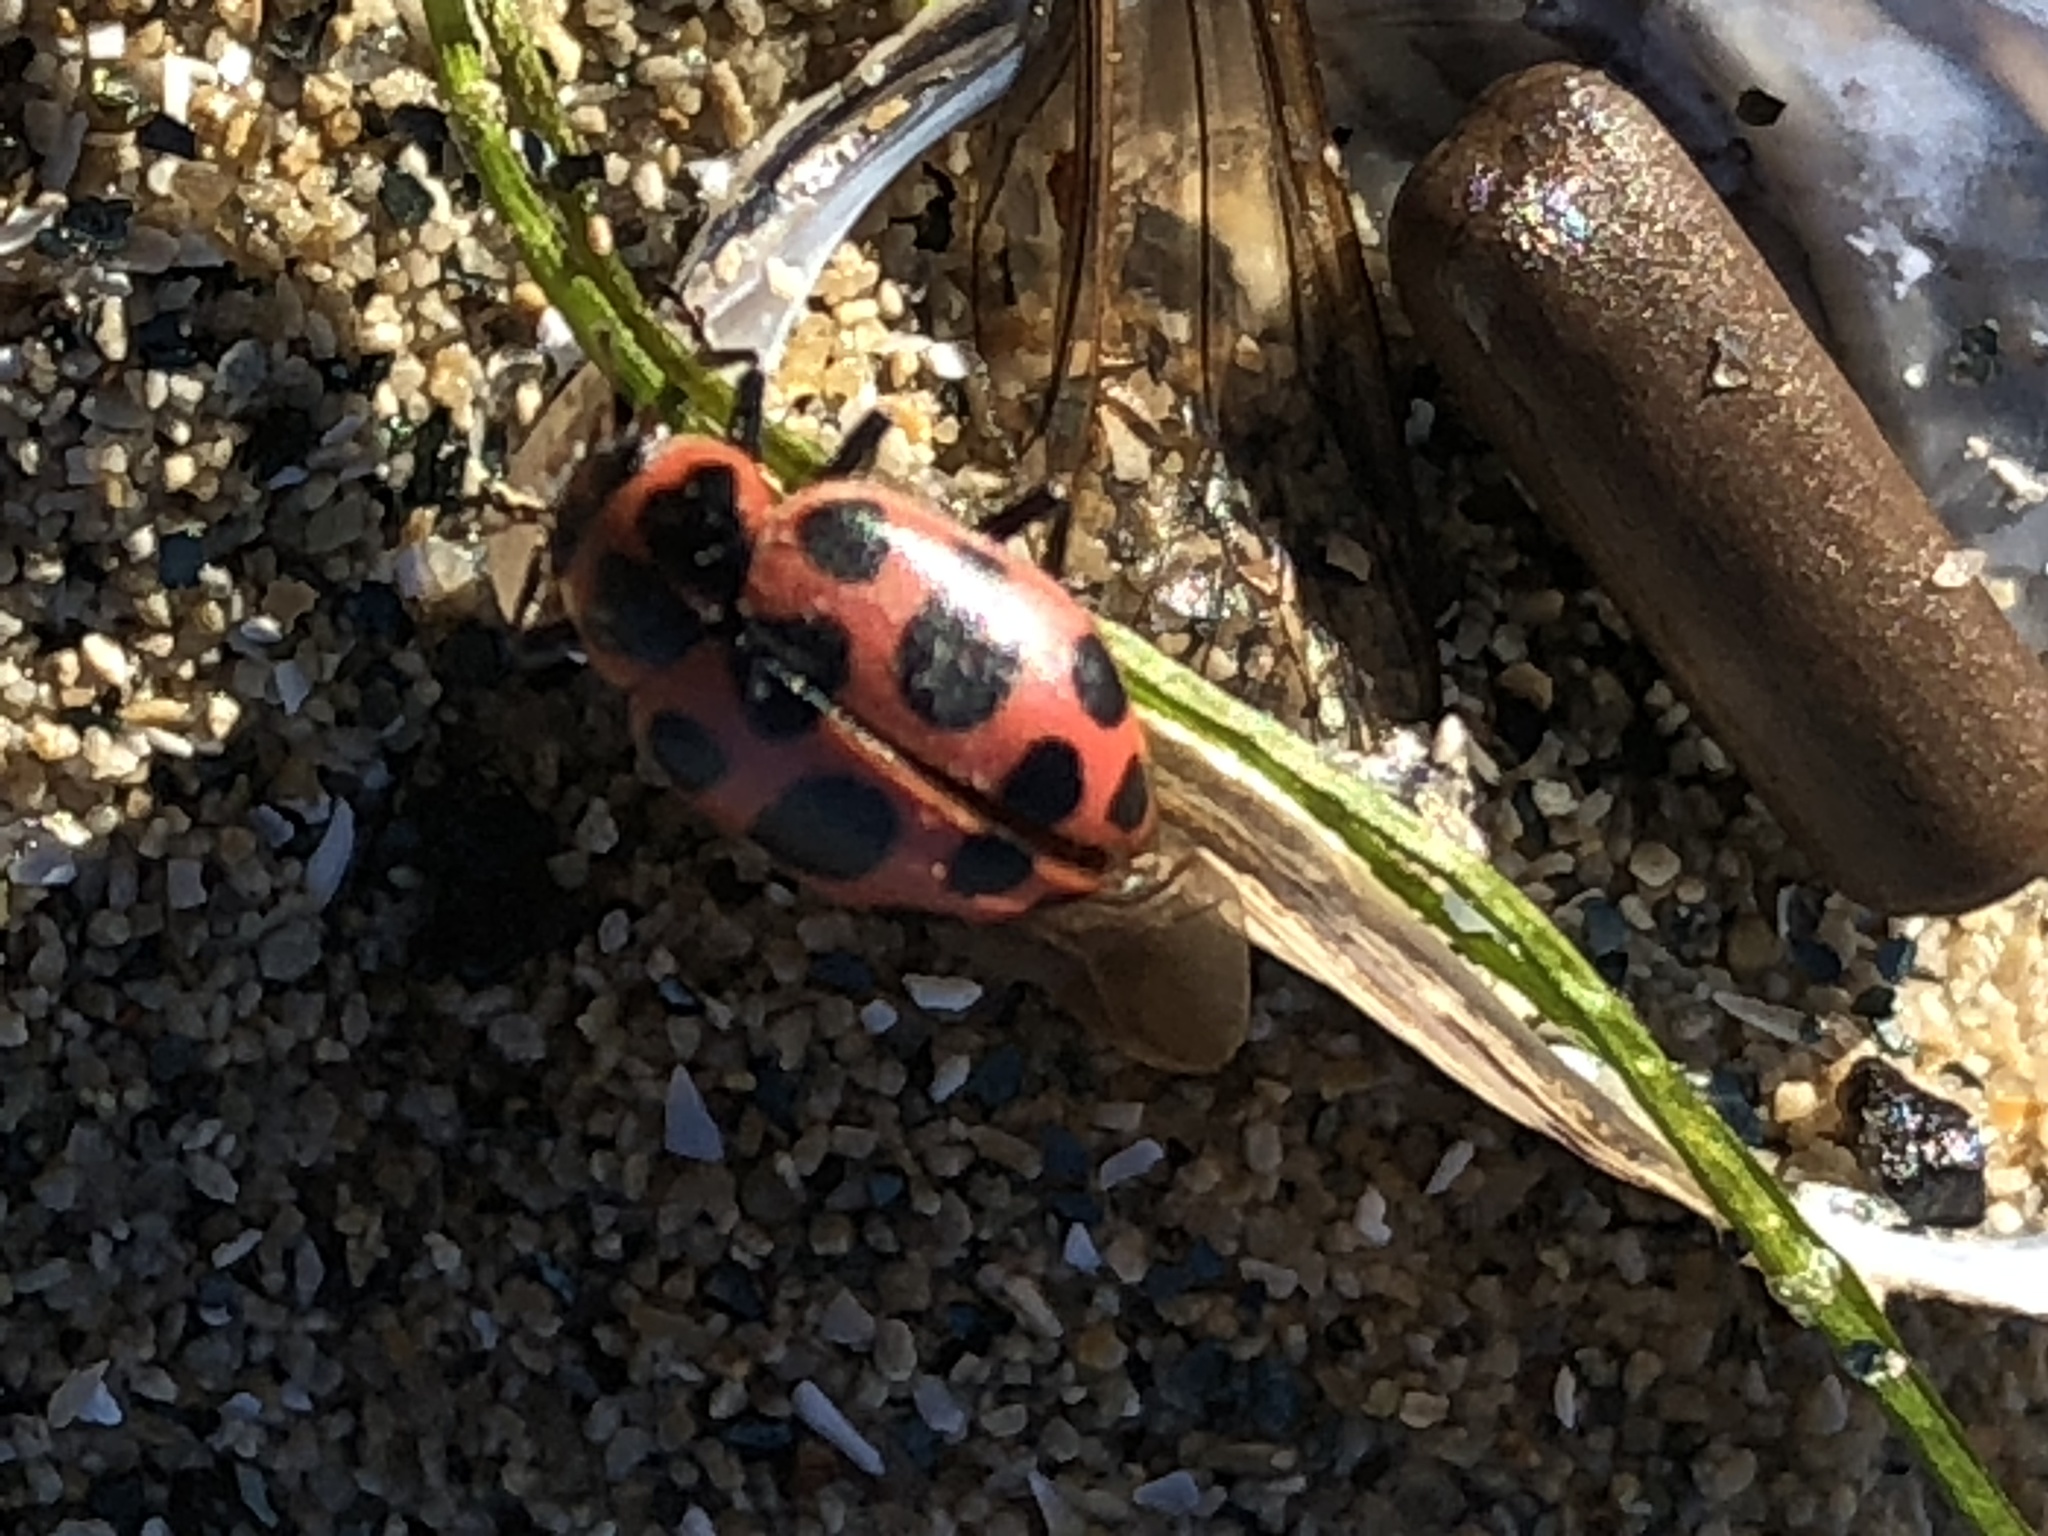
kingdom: Animalia
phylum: Arthropoda
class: Insecta
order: Coleoptera
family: Coccinellidae
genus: Coleomegilla
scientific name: Coleomegilla maculata
